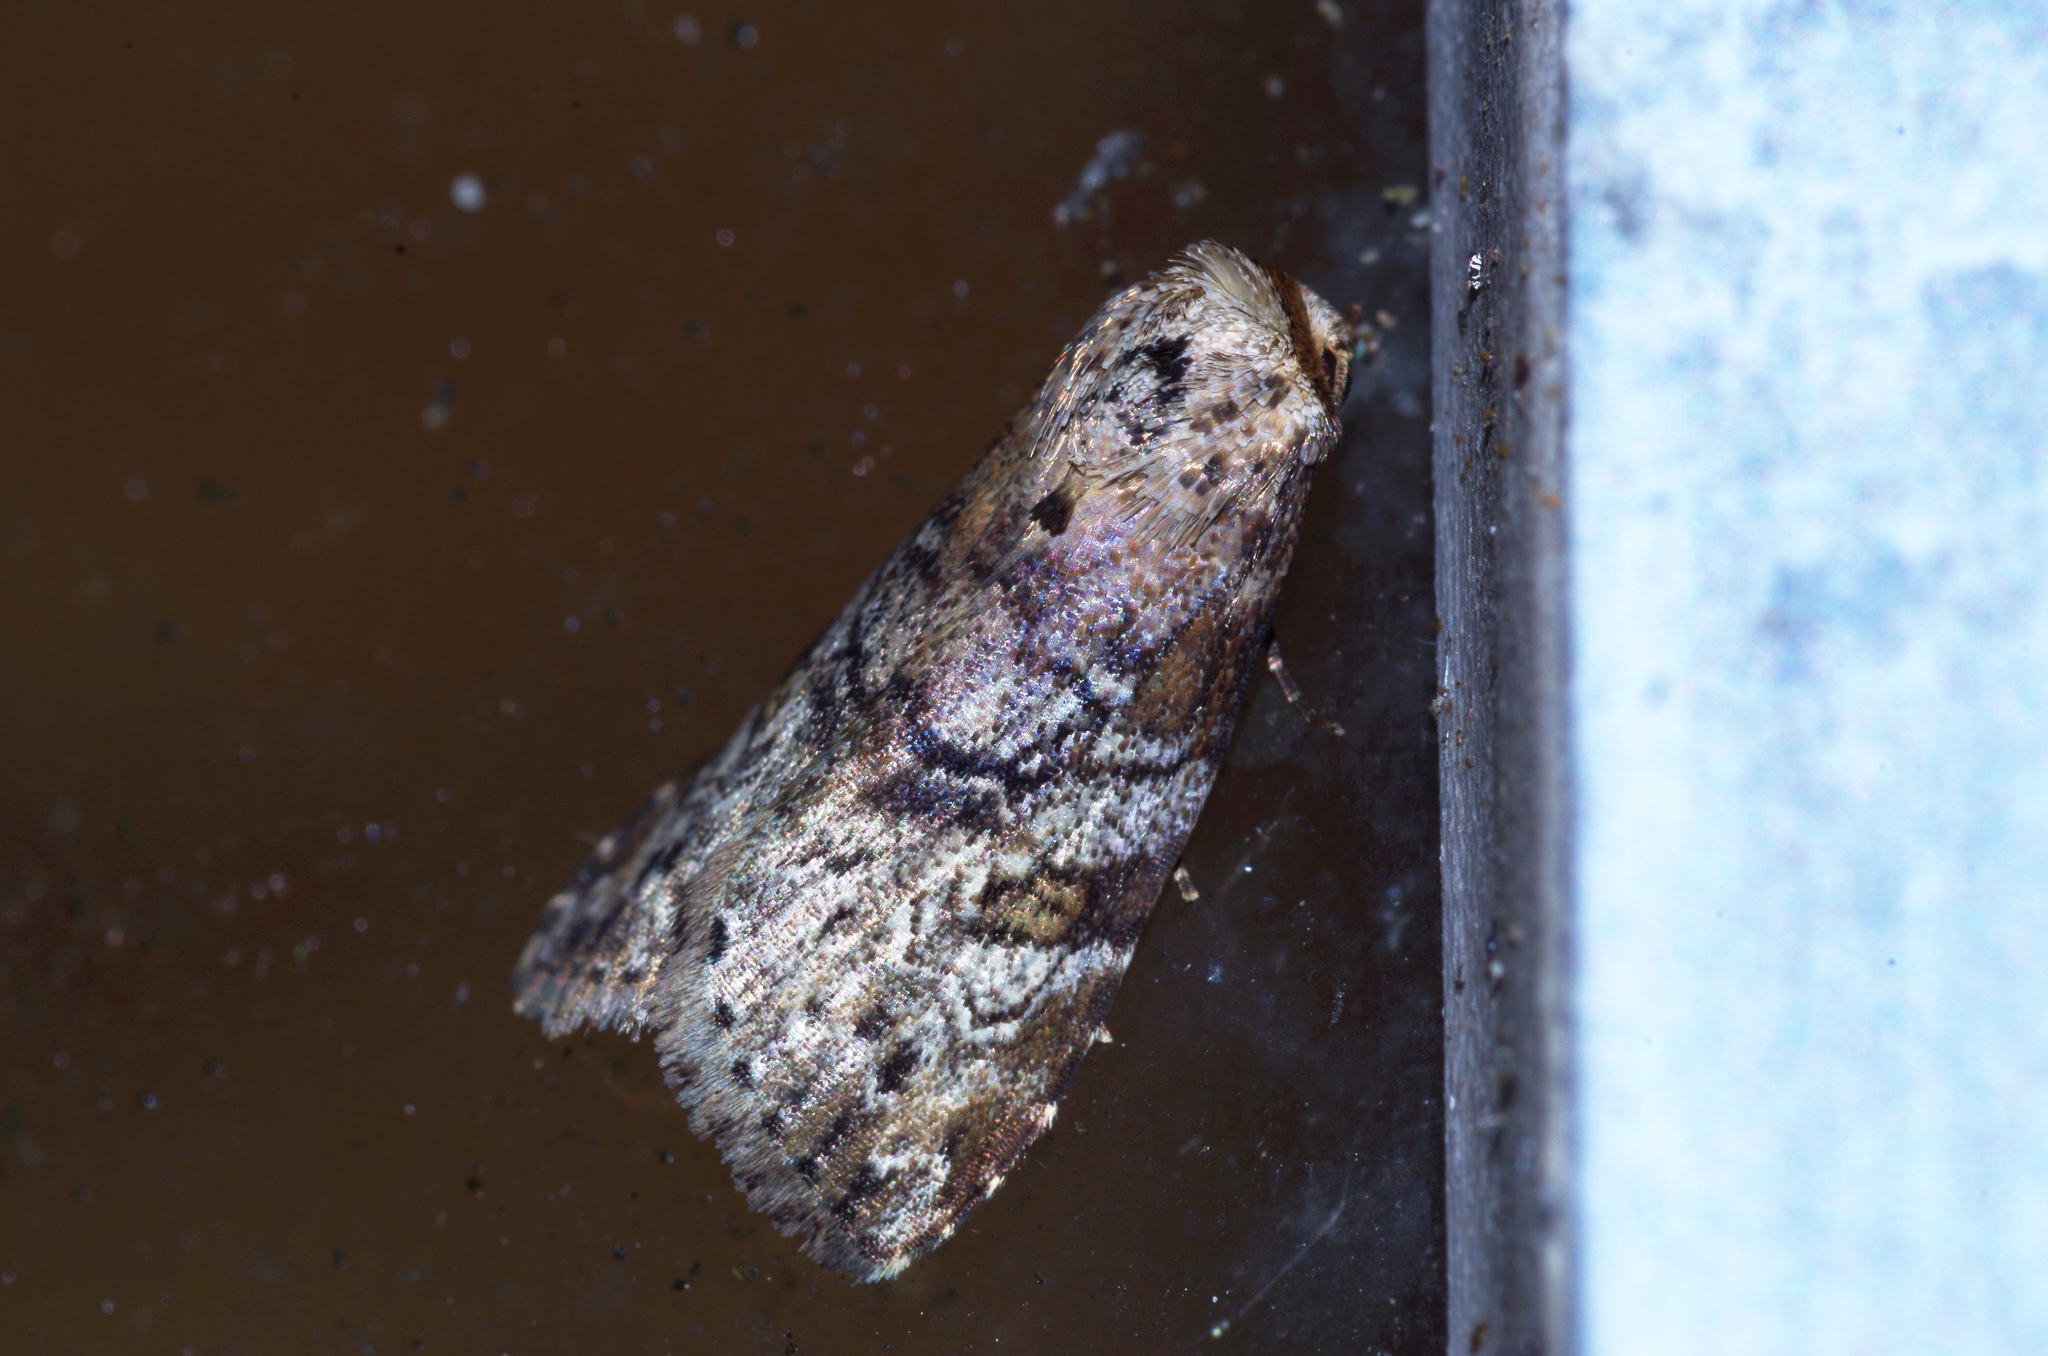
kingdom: Animalia
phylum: Arthropoda
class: Insecta
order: Lepidoptera
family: Erebidae
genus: Chorsia
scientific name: Chorsia mollicula
